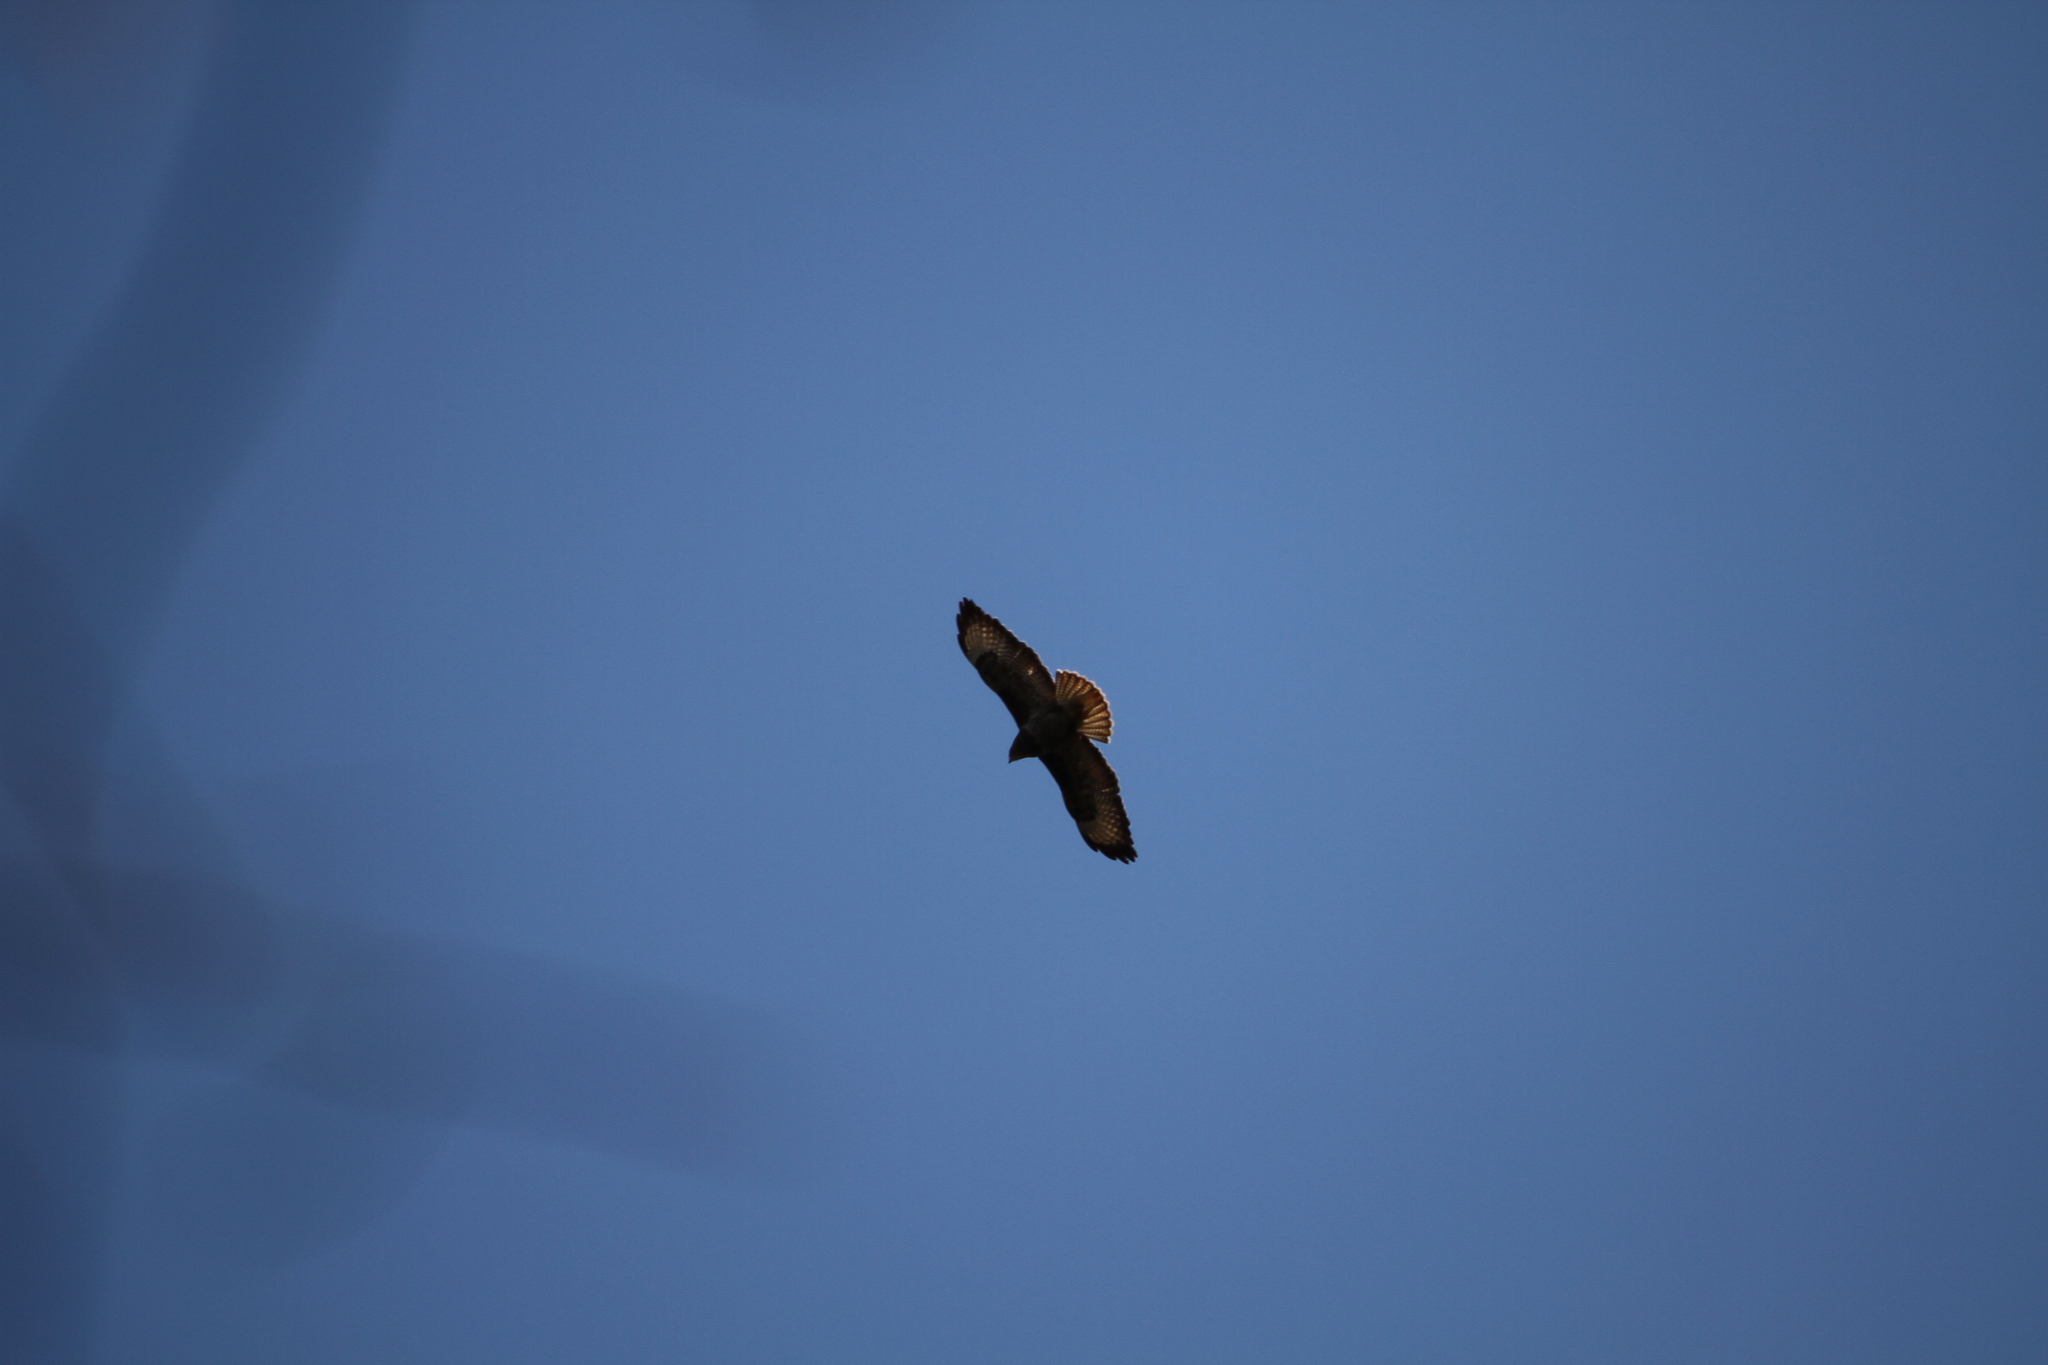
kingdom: Animalia
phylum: Chordata
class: Aves
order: Accipitriformes
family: Accipitridae
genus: Buteo
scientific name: Buteo buteo
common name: Common buzzard
